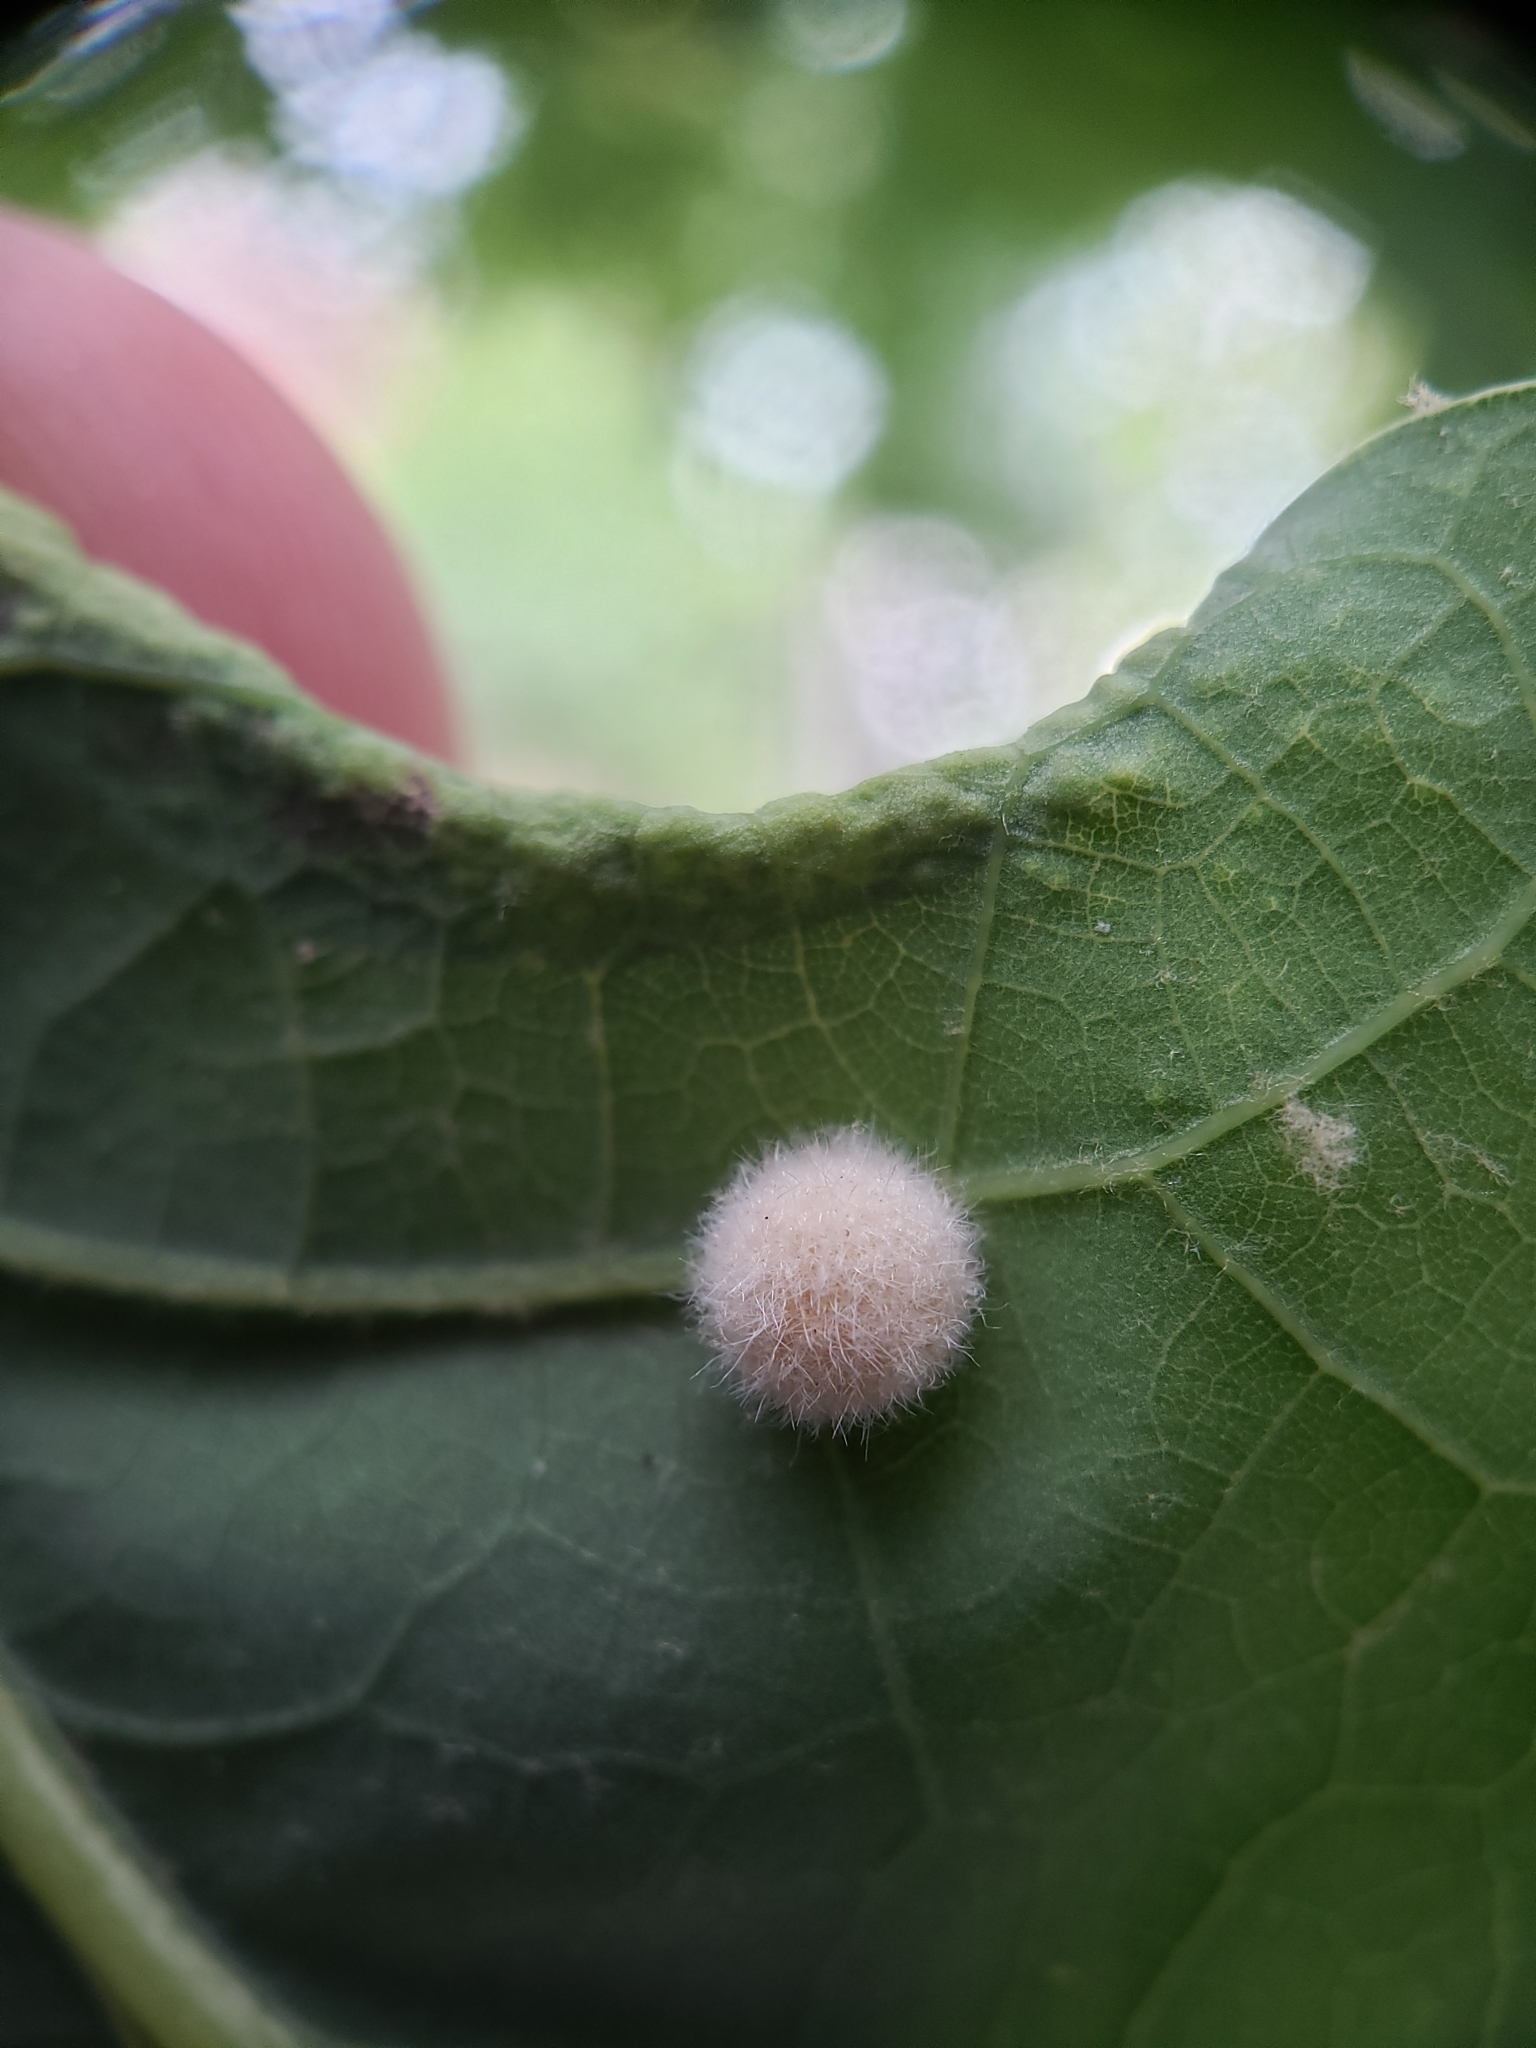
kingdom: Animalia
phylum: Arthropoda
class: Insecta
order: Hymenoptera
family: Cynipidae
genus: Philonix
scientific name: Philonix fulvicollis
